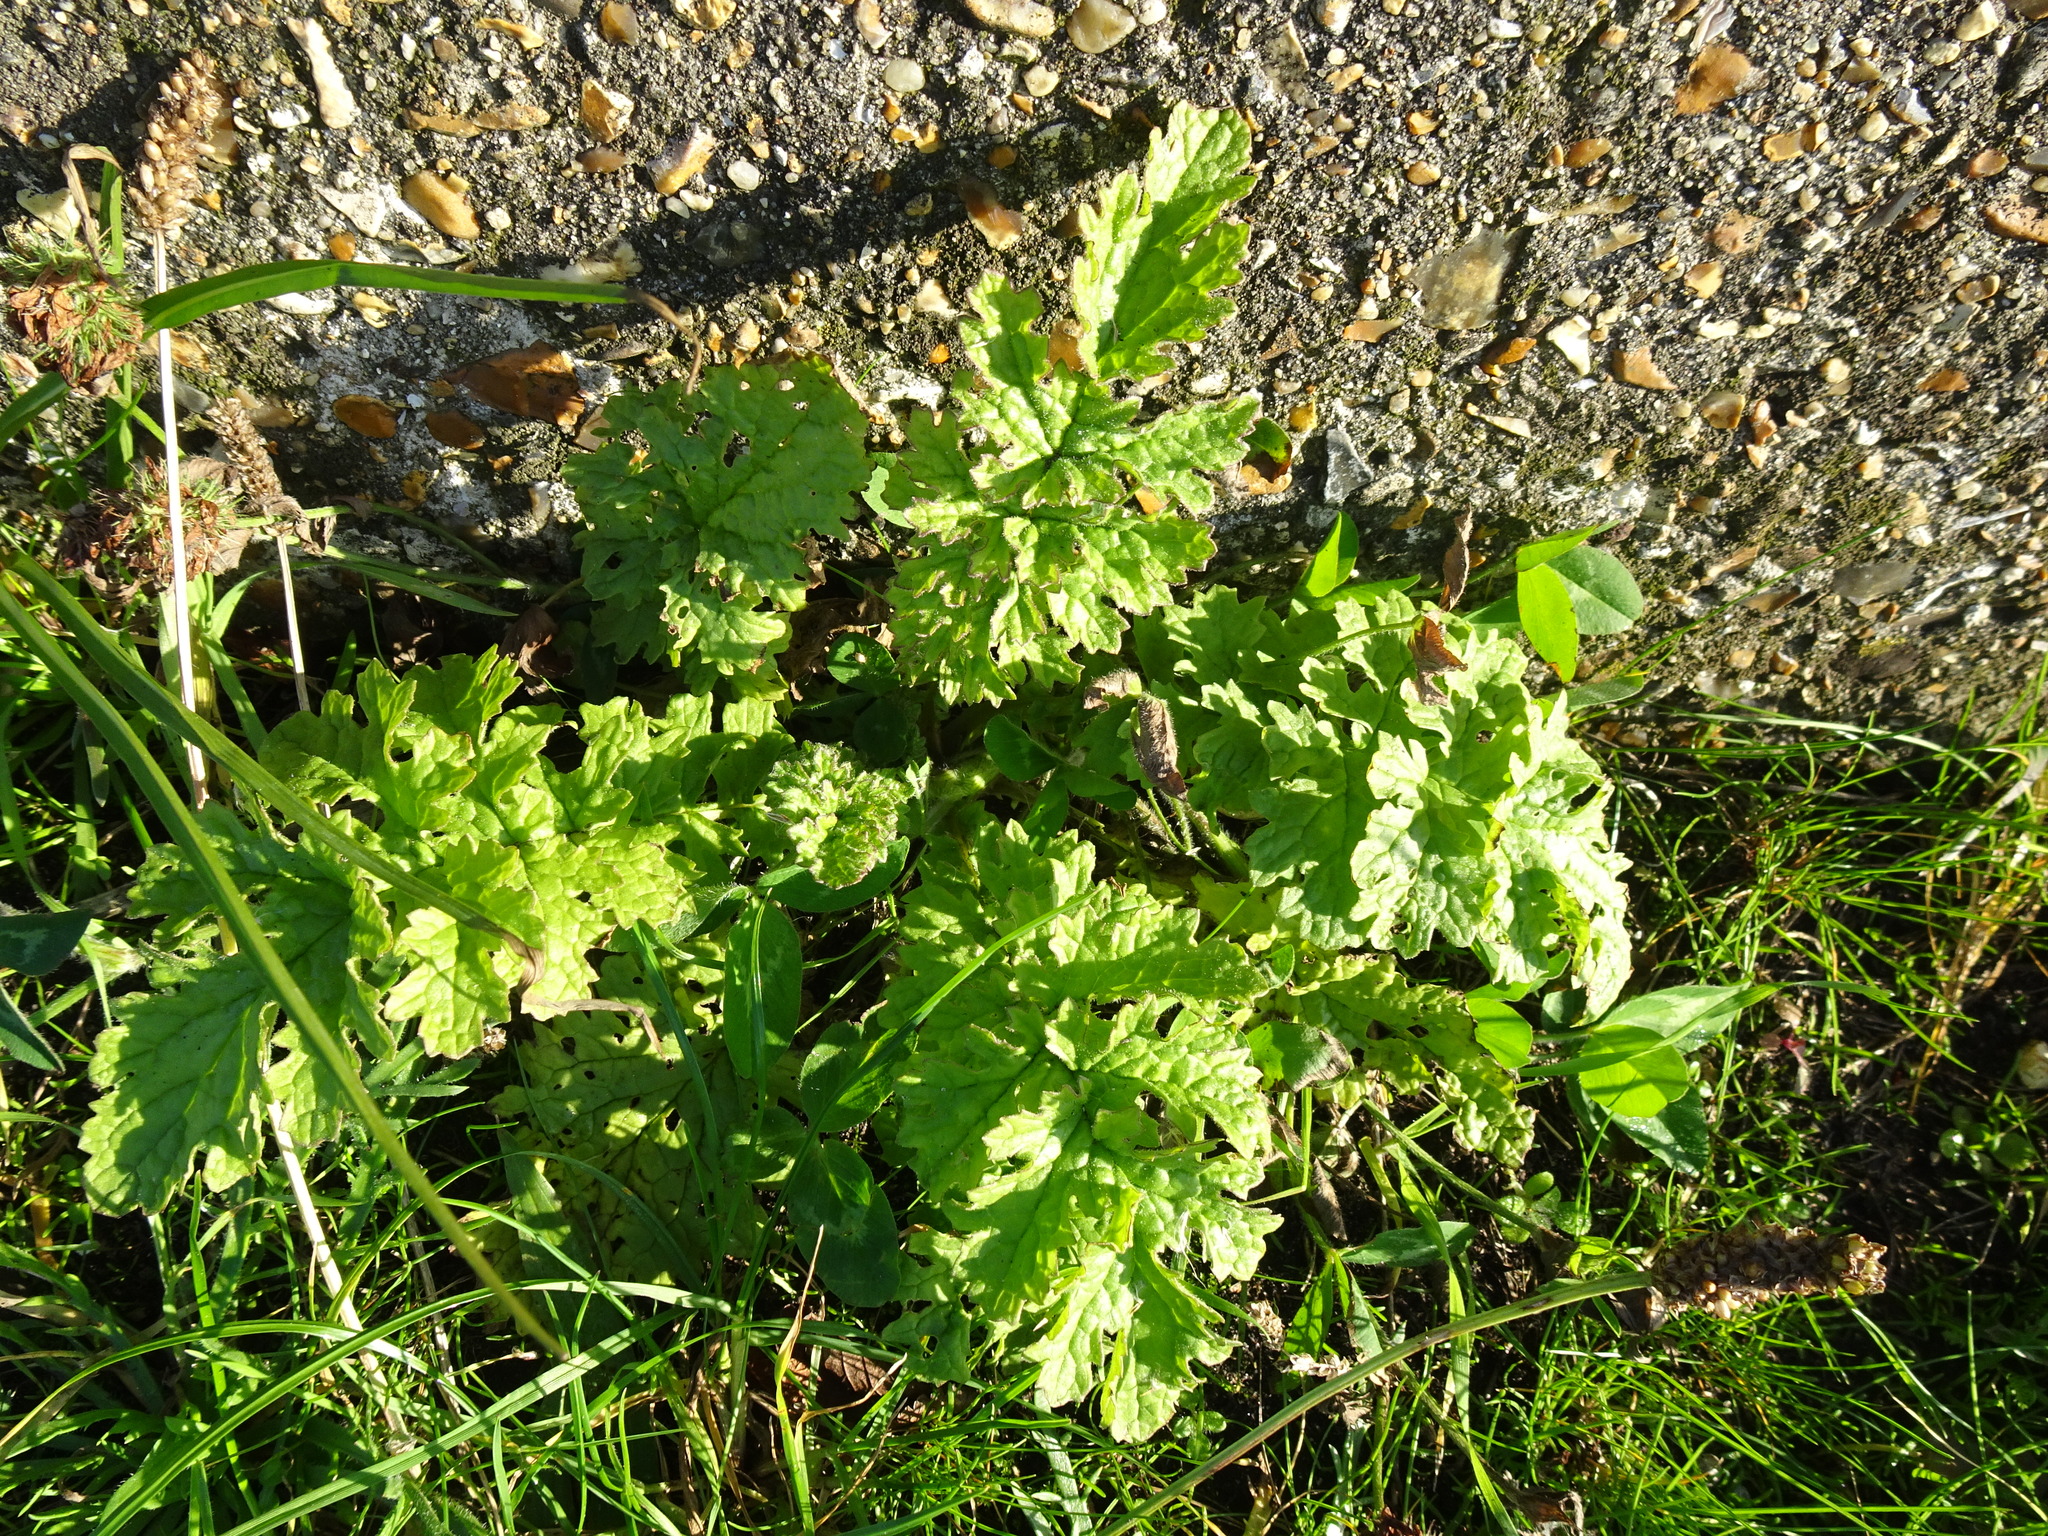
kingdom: Plantae
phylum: Tracheophyta
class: Magnoliopsida
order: Asterales
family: Asteraceae
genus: Jacobaea
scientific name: Jacobaea vulgaris
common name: Stinking willie
